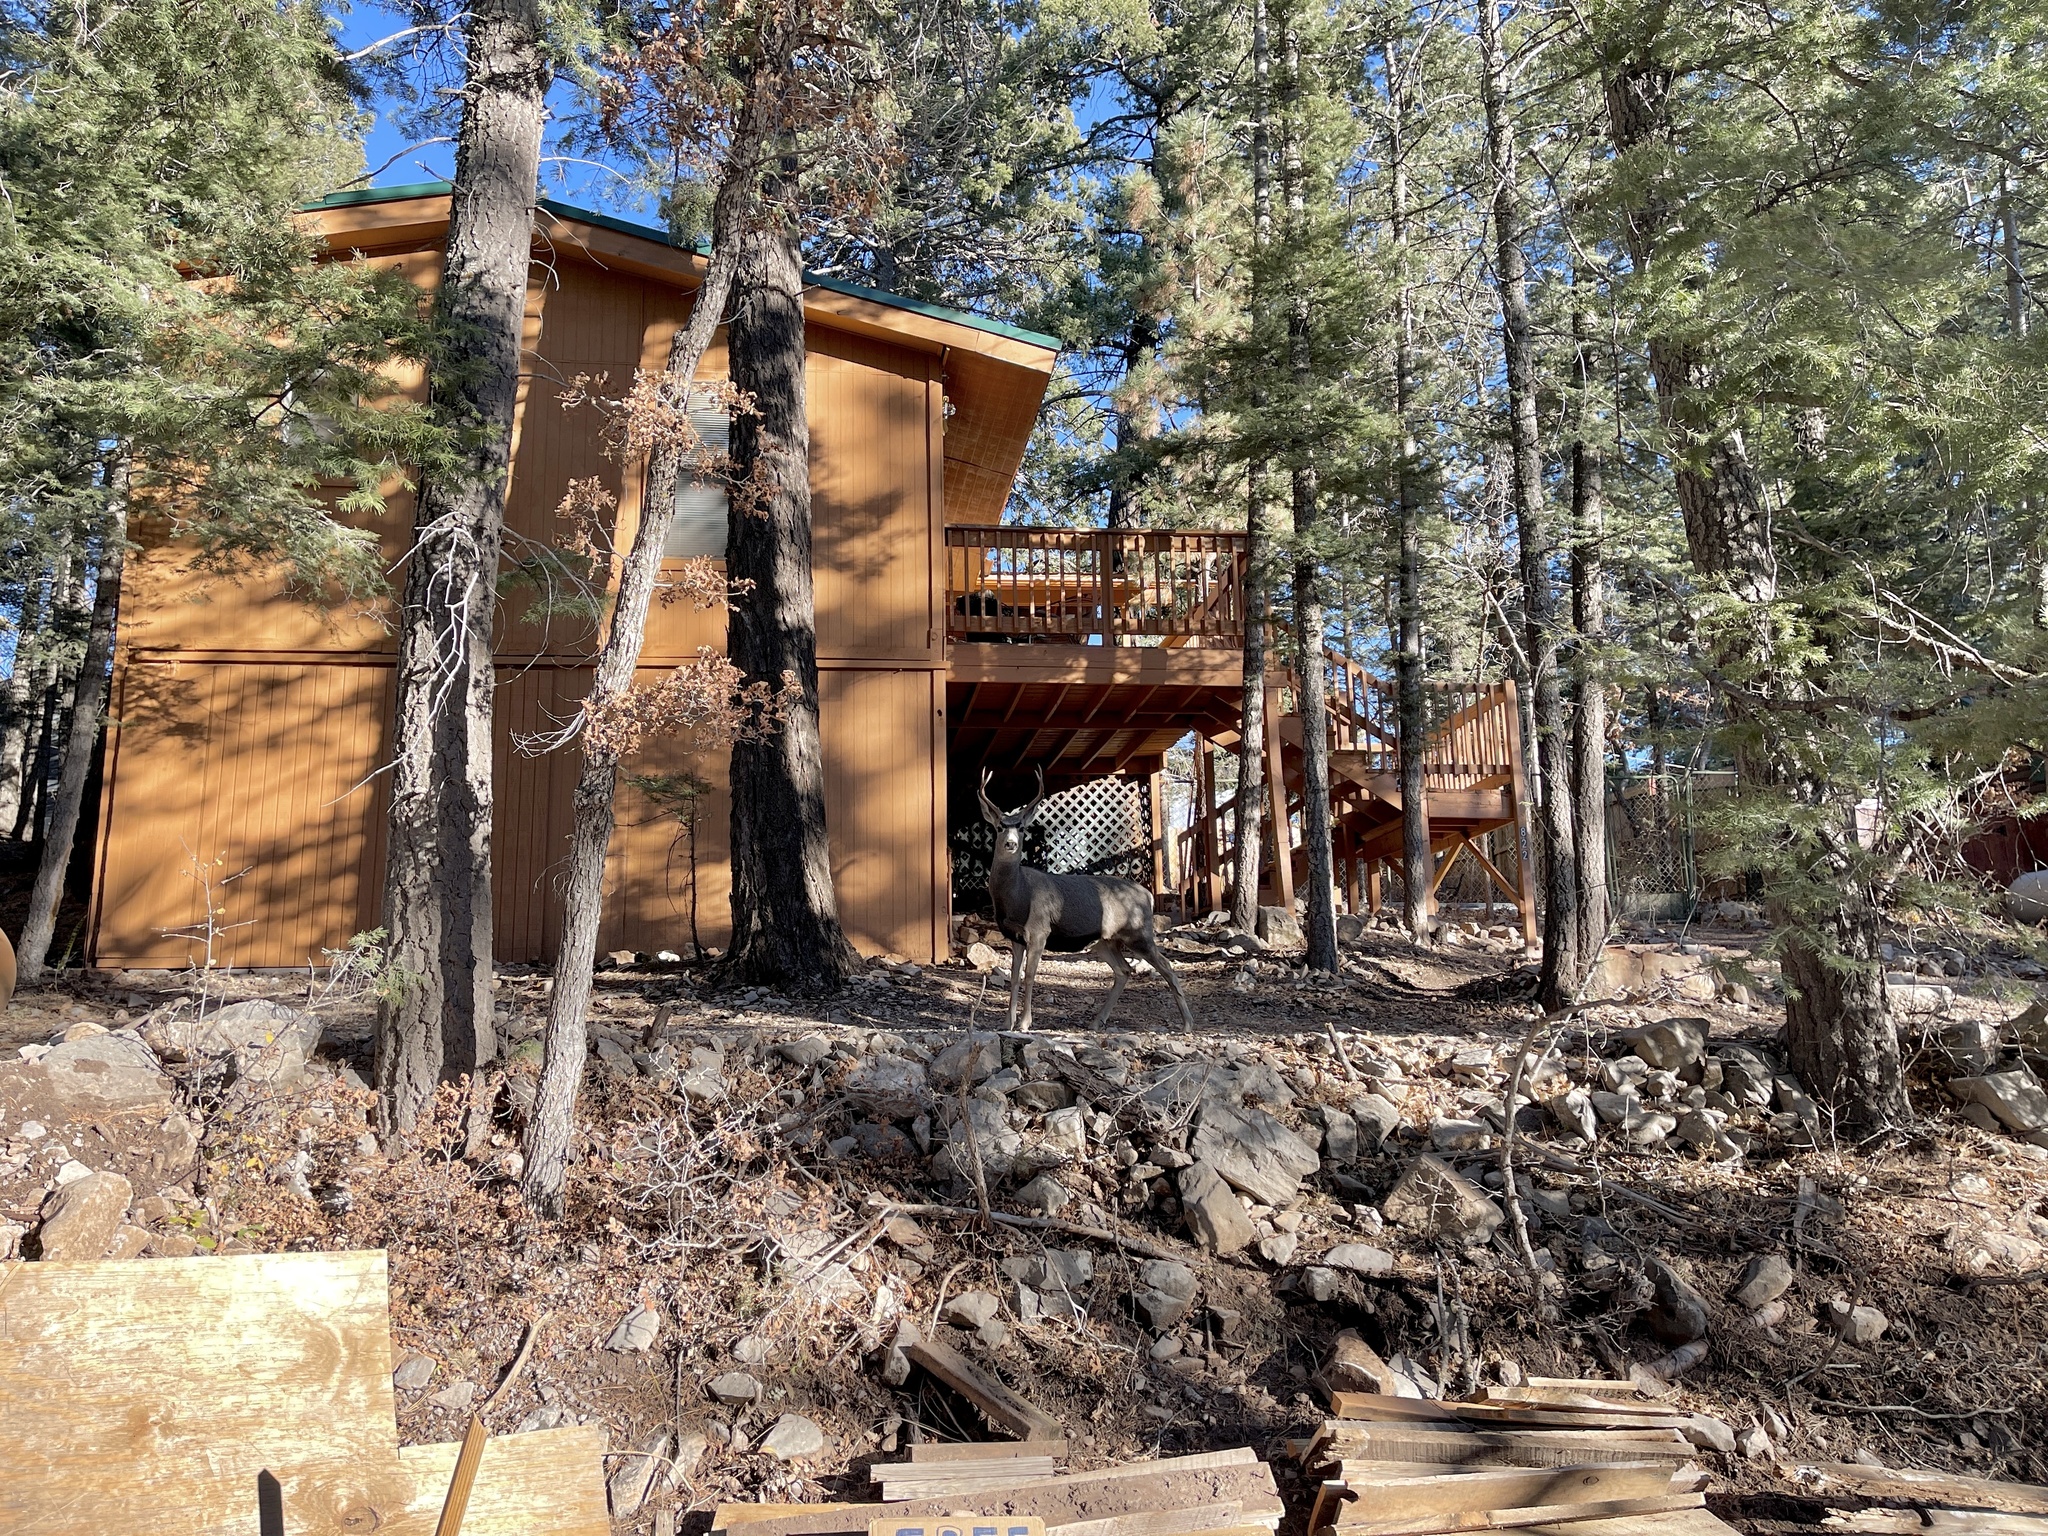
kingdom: Animalia
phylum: Chordata
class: Mammalia
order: Artiodactyla
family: Cervidae
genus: Odocoileus
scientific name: Odocoileus hemionus
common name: Mule deer
